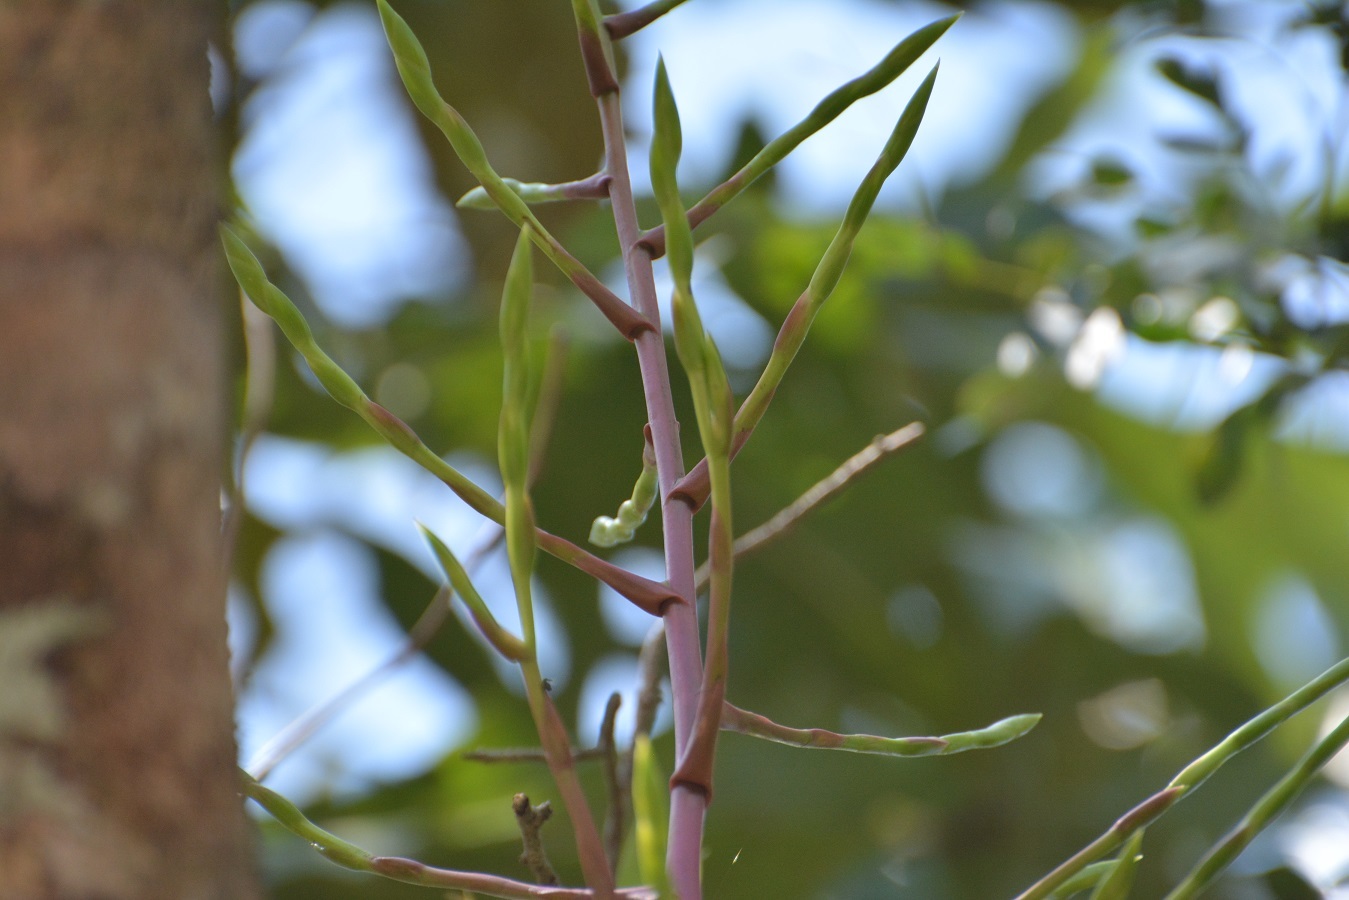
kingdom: Plantae
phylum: Tracheophyta
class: Liliopsida
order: Poales
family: Bromeliaceae
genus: Tillandsia
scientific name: Tillandsia elusiva
